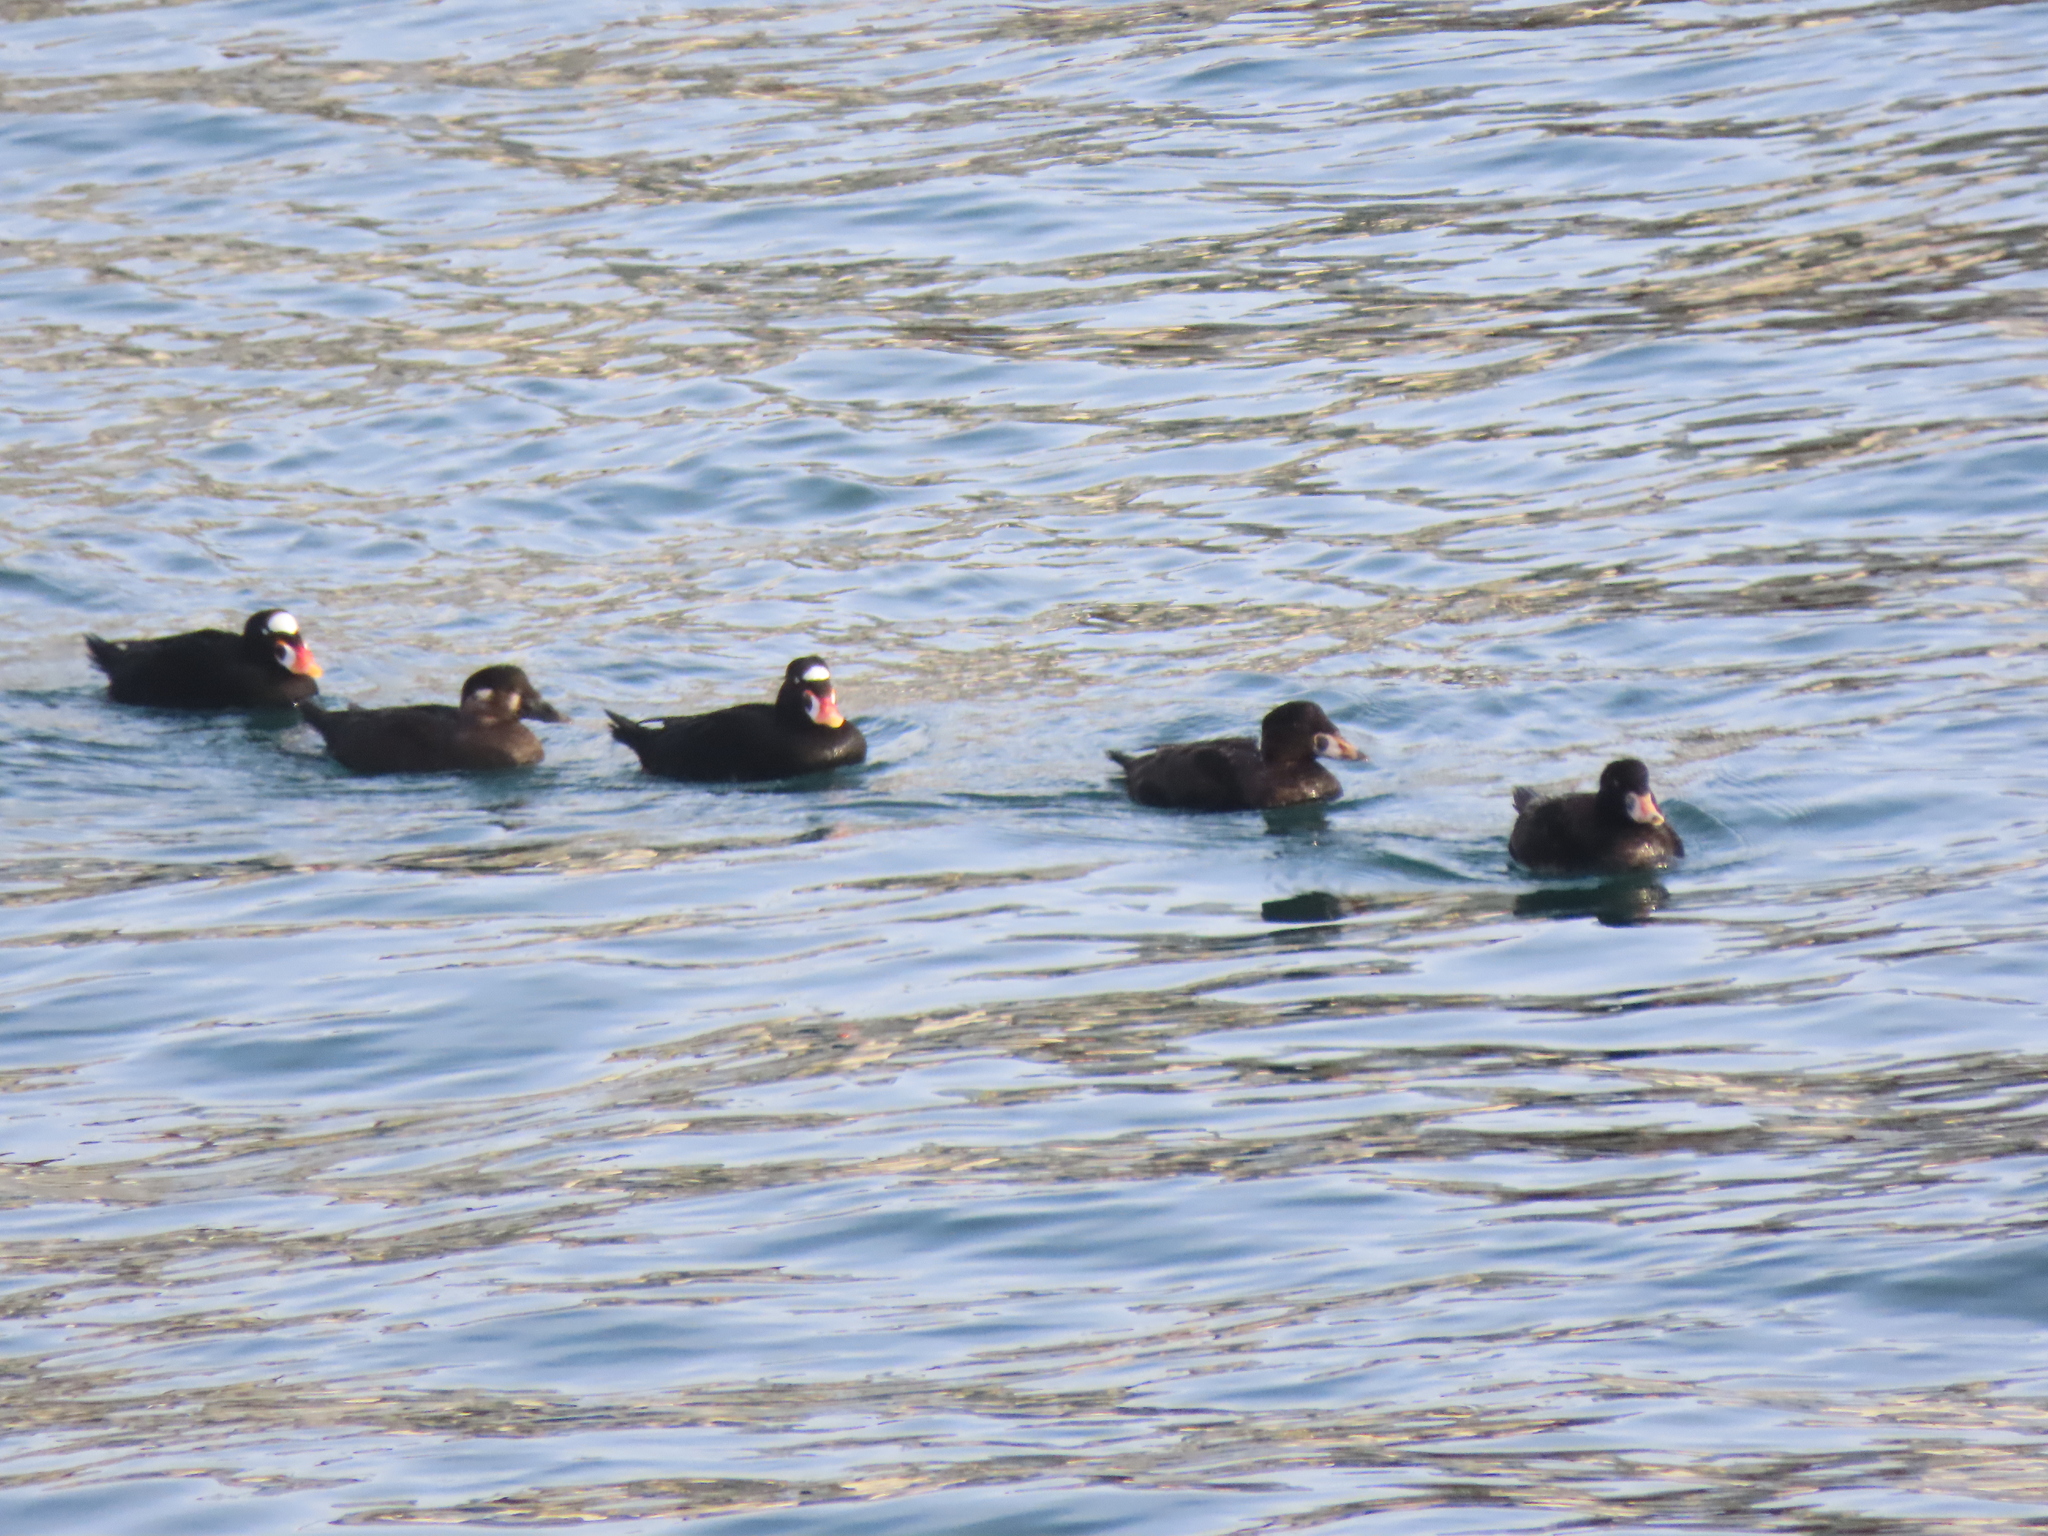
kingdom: Animalia
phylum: Chordata
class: Aves
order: Anseriformes
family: Anatidae
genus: Melanitta
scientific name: Melanitta perspicillata
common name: Surf scoter
